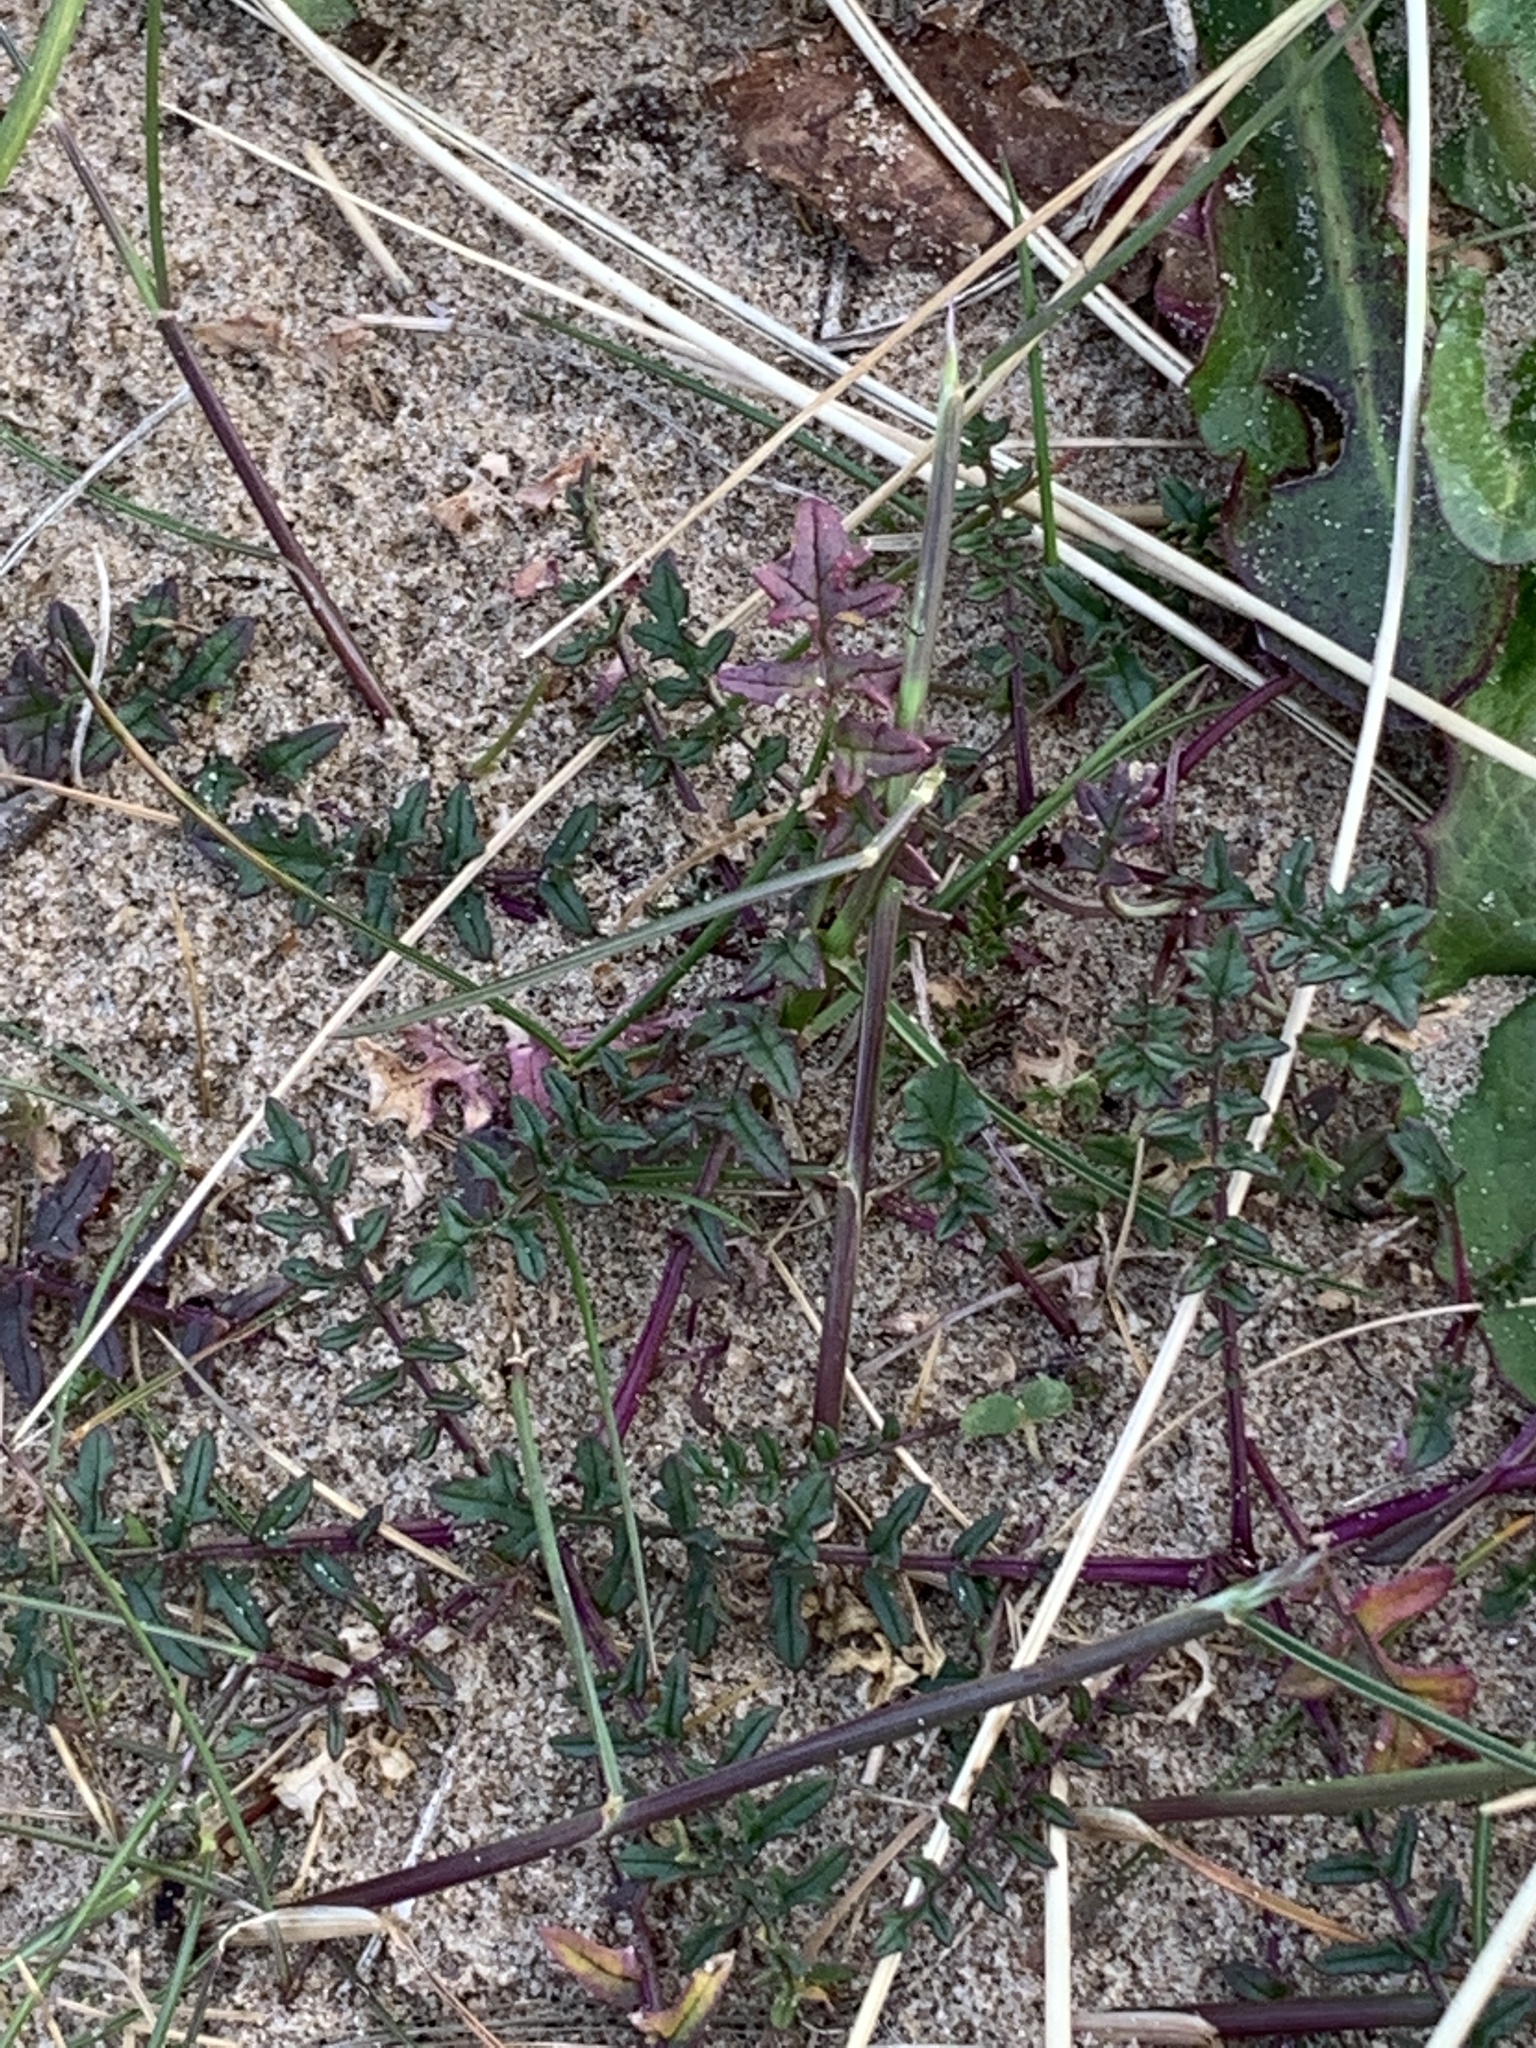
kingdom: Plantae
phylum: Tracheophyta
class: Magnoliopsida
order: Brassicales
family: Brassicaceae
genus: Coincya
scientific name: Coincya monensis
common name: Star-mustard
